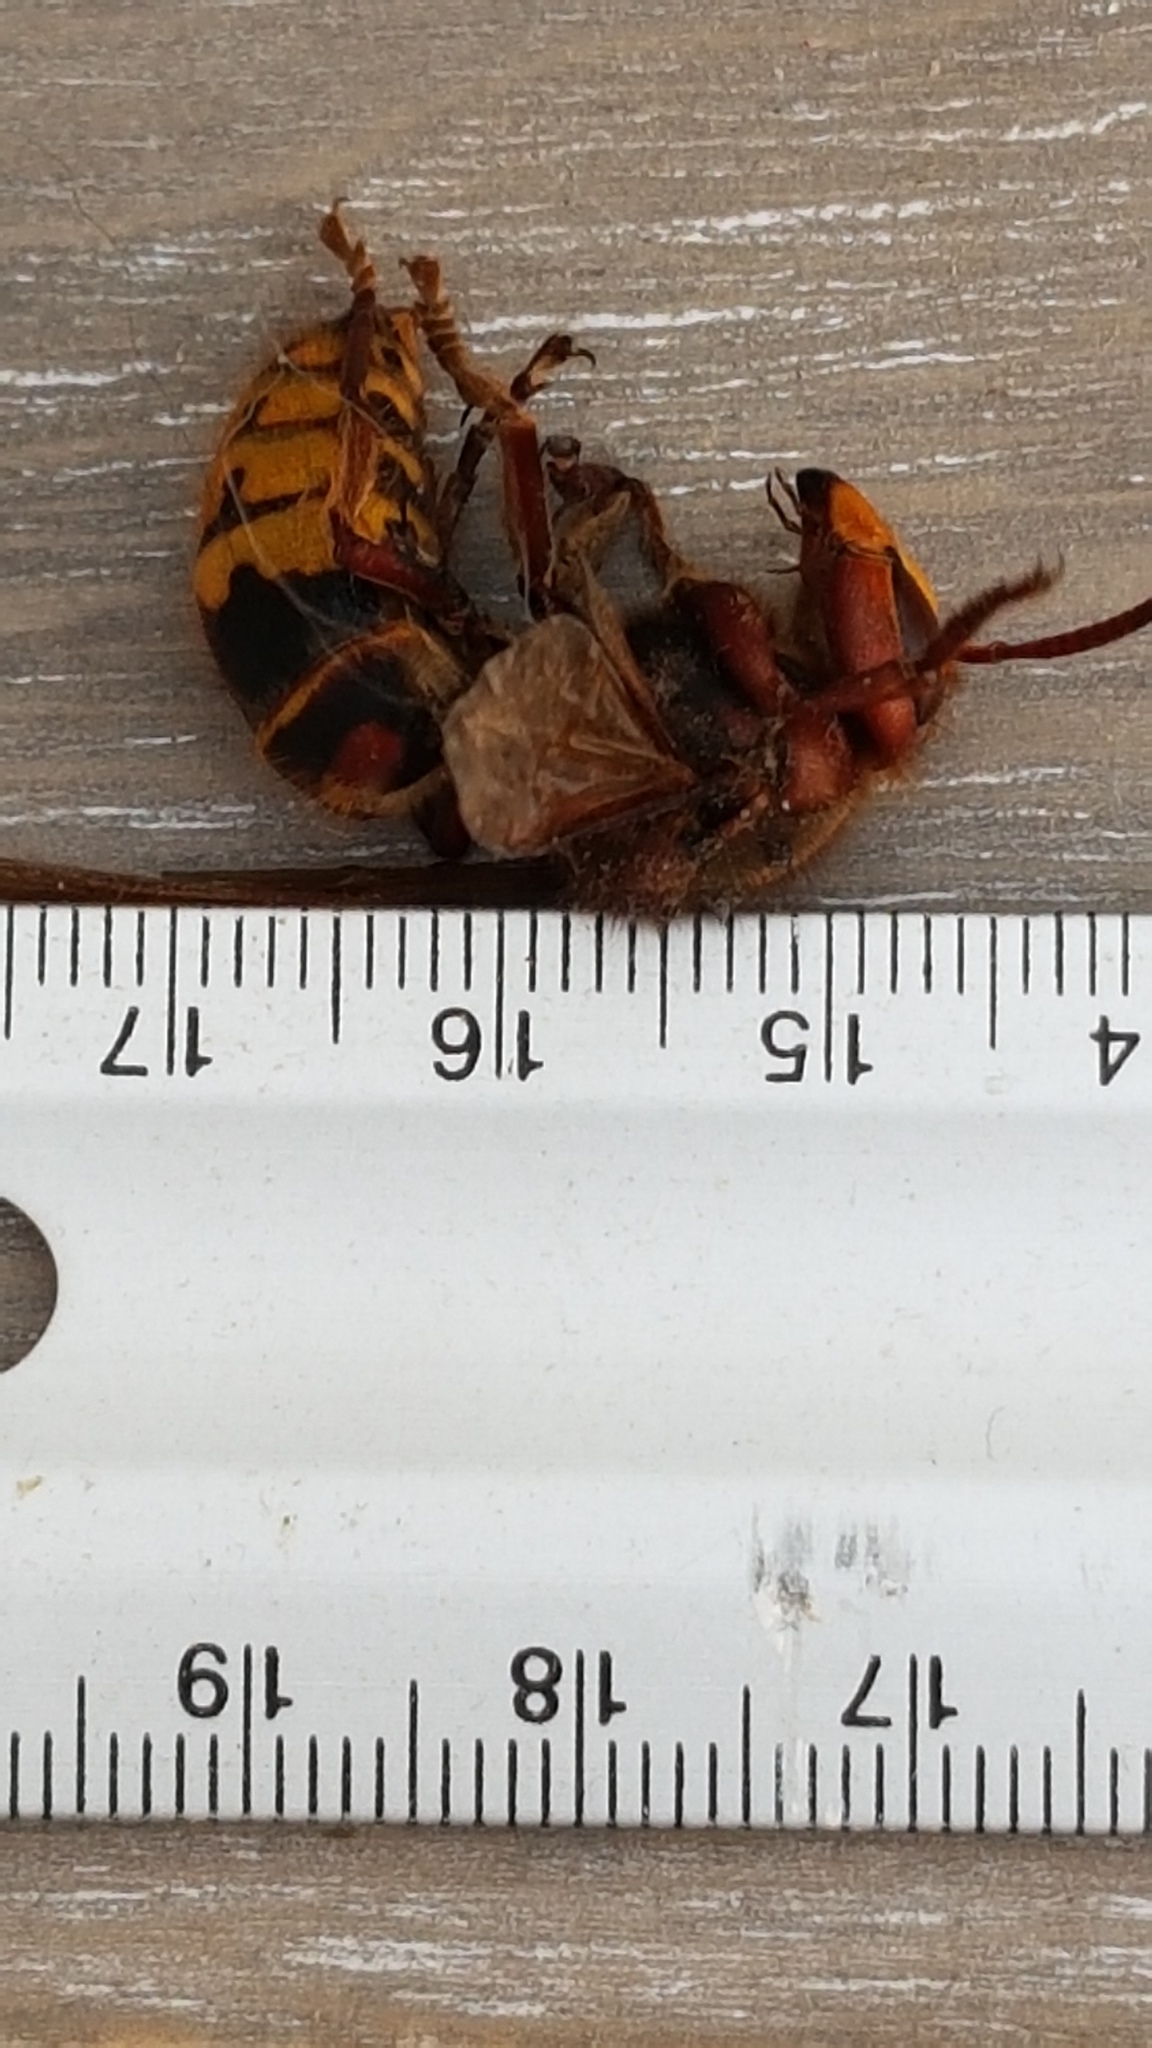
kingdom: Animalia
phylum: Arthropoda
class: Insecta
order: Hymenoptera
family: Vespidae
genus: Vespa
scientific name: Vespa crabro
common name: Hornet
